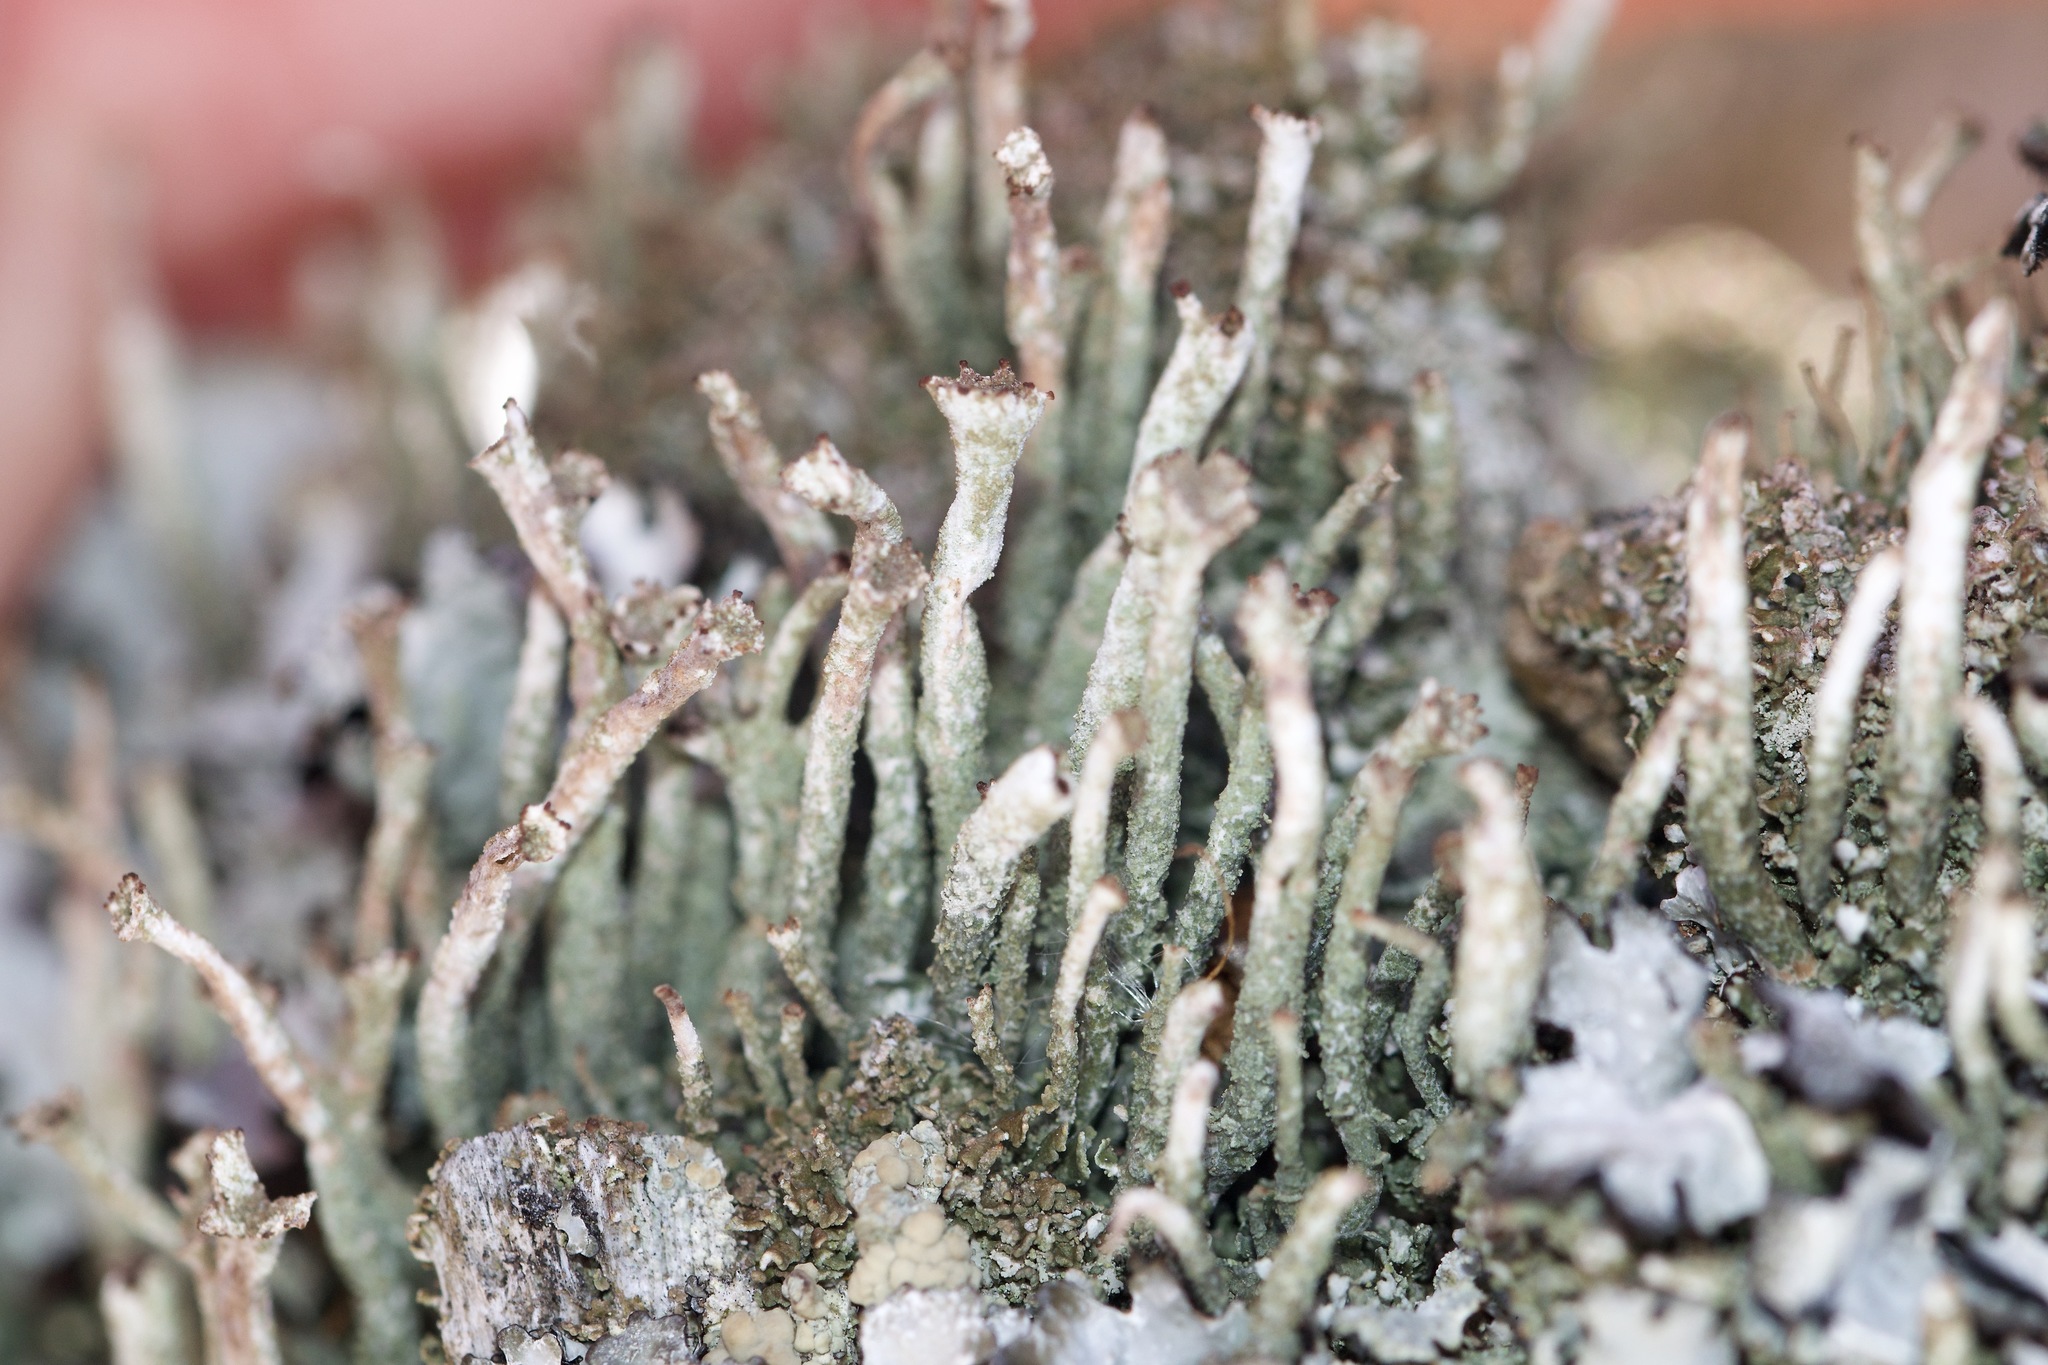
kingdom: Fungi
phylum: Ascomycota
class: Lecanoromycetes
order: Lecanorales
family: Cladoniaceae
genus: Cladonia
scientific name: Cladonia rei
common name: Wand lichen
